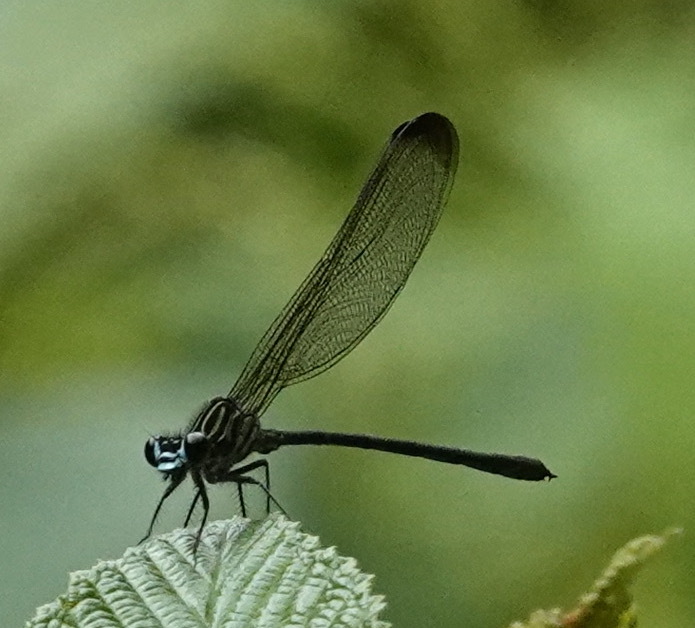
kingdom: Animalia
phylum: Arthropoda
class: Insecta
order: Odonata
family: Polythoridae
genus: Euthore
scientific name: Euthore terminalis
